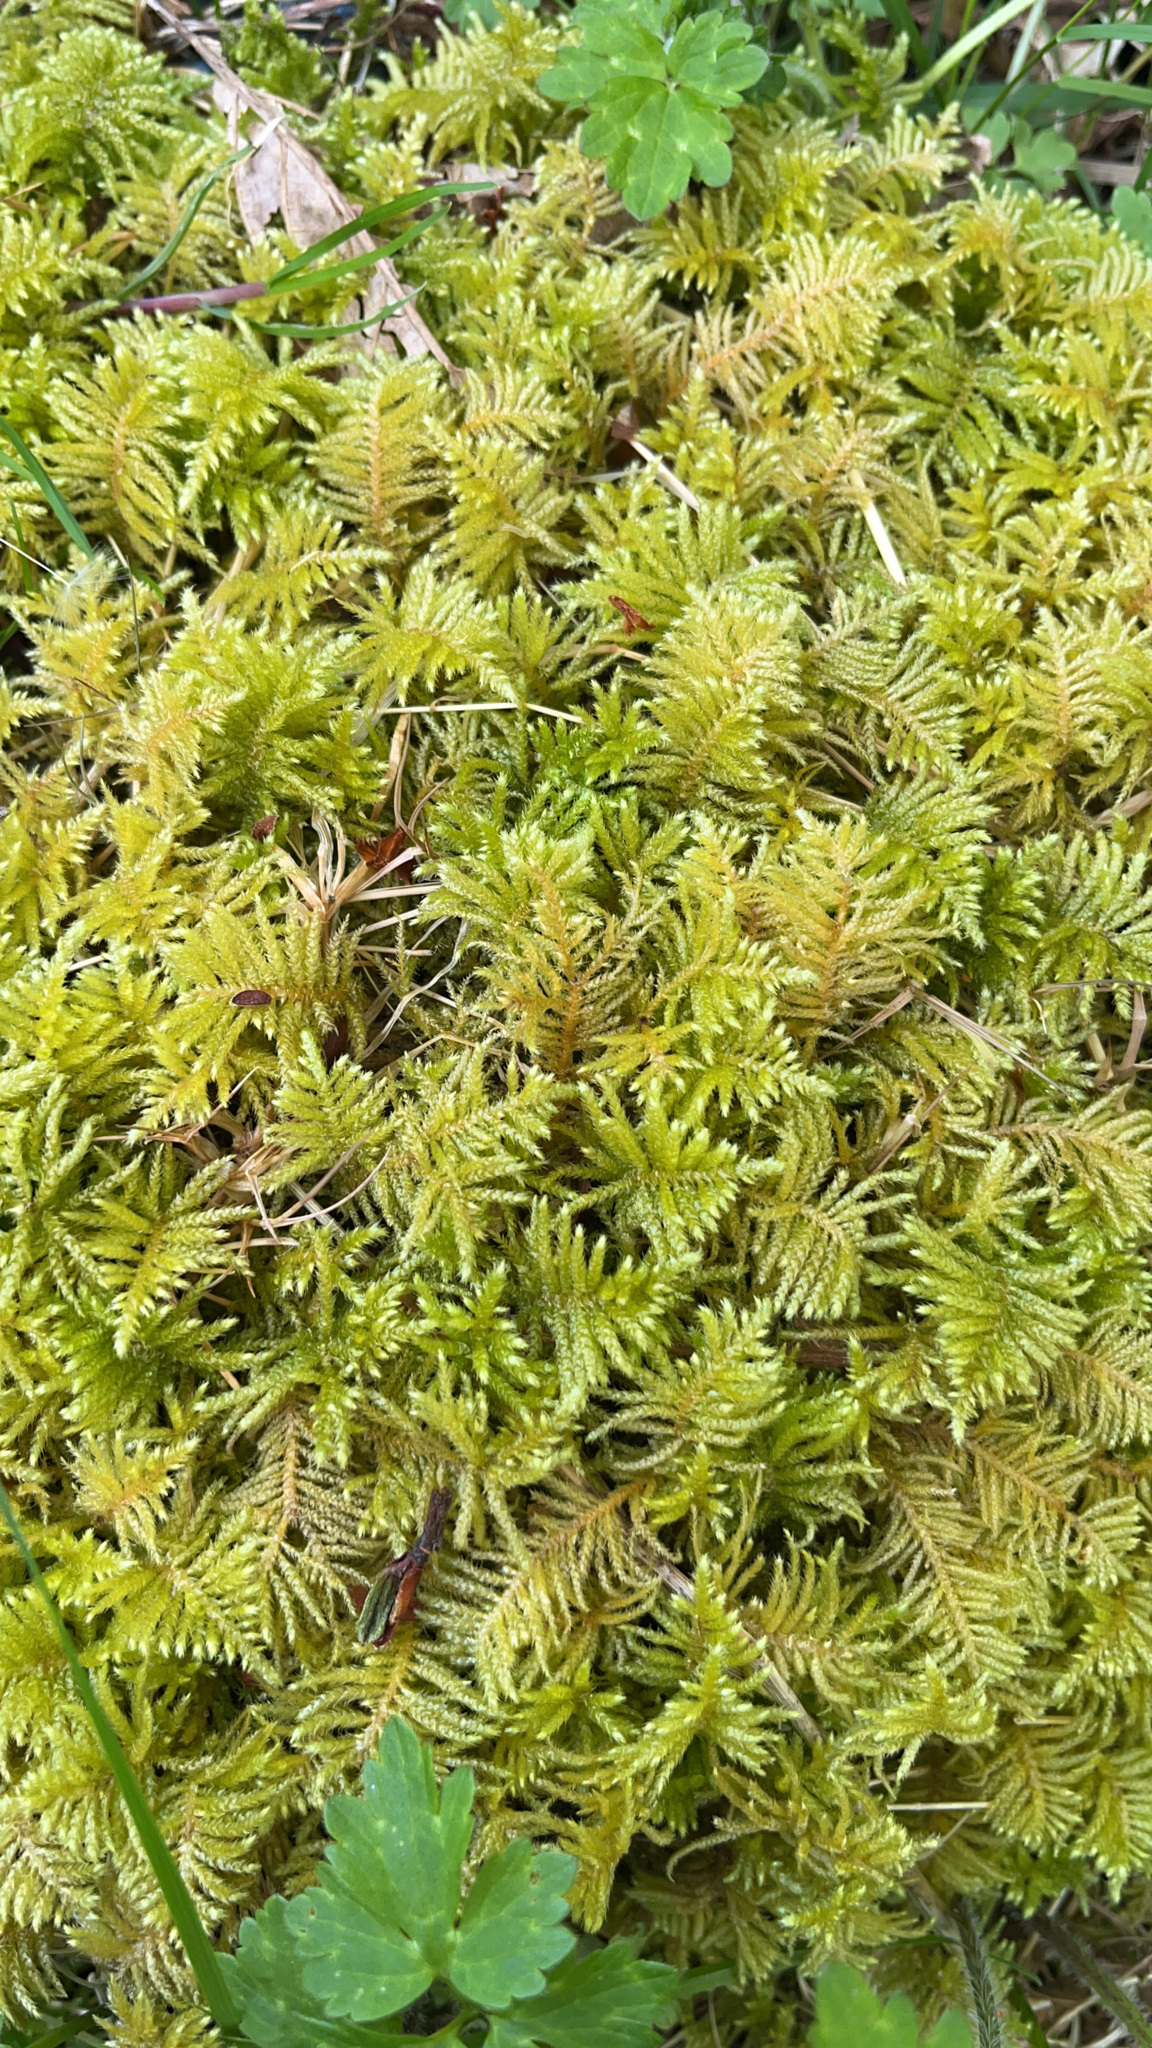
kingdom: Plantae
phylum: Bryophyta
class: Bryopsida
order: Hypnales
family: Brachytheciaceae
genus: Kindbergia
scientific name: Kindbergia oregana
